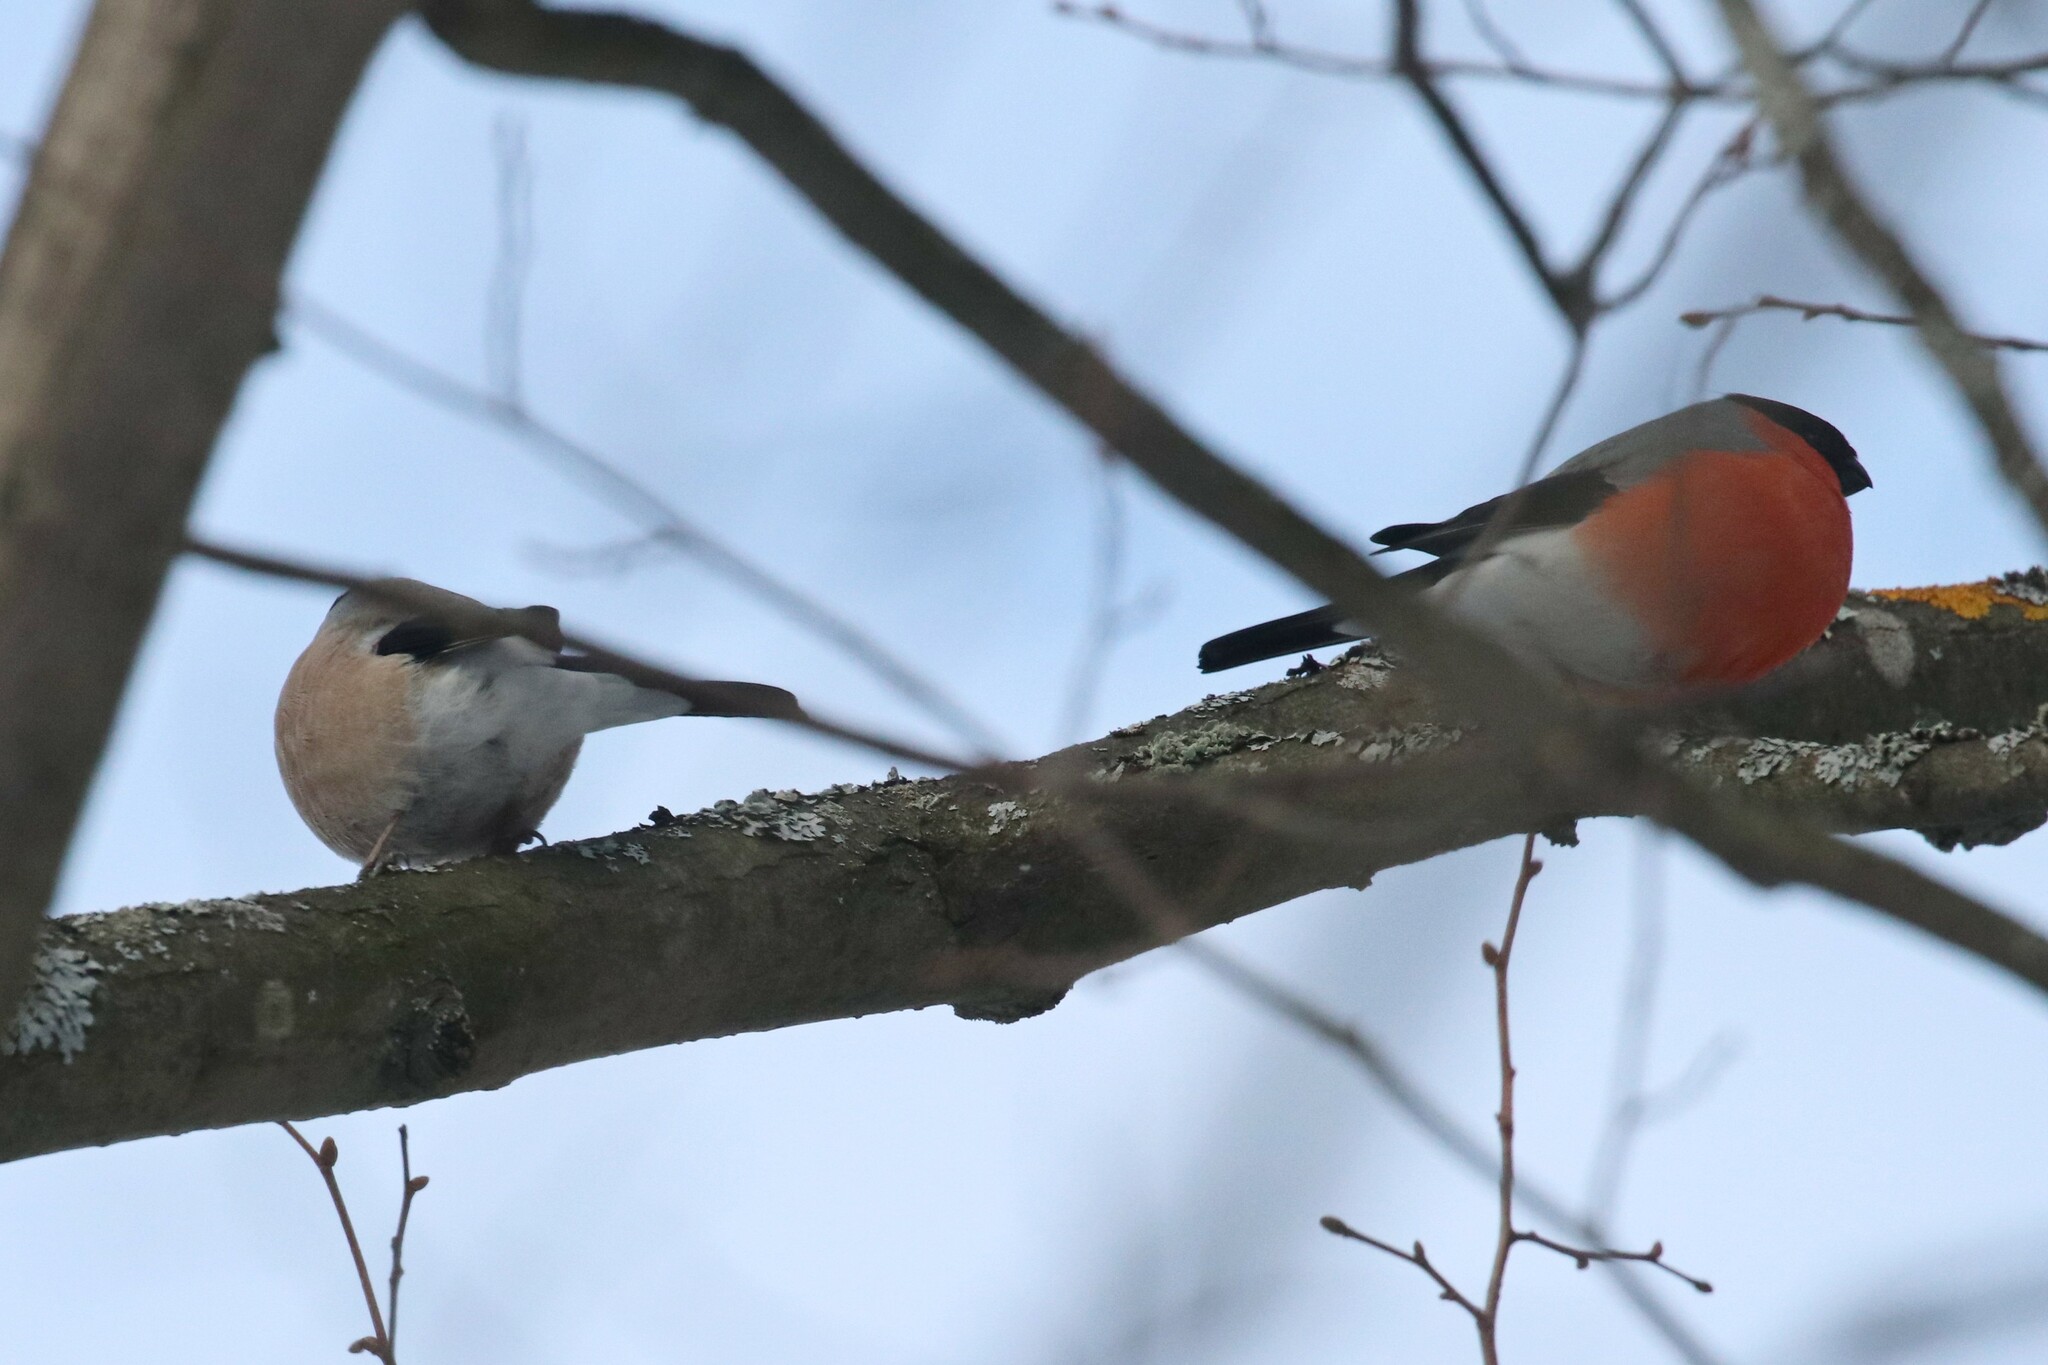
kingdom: Animalia
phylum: Chordata
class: Aves
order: Passeriformes
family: Fringillidae
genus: Pyrrhula
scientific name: Pyrrhula pyrrhula
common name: Eurasian bullfinch
